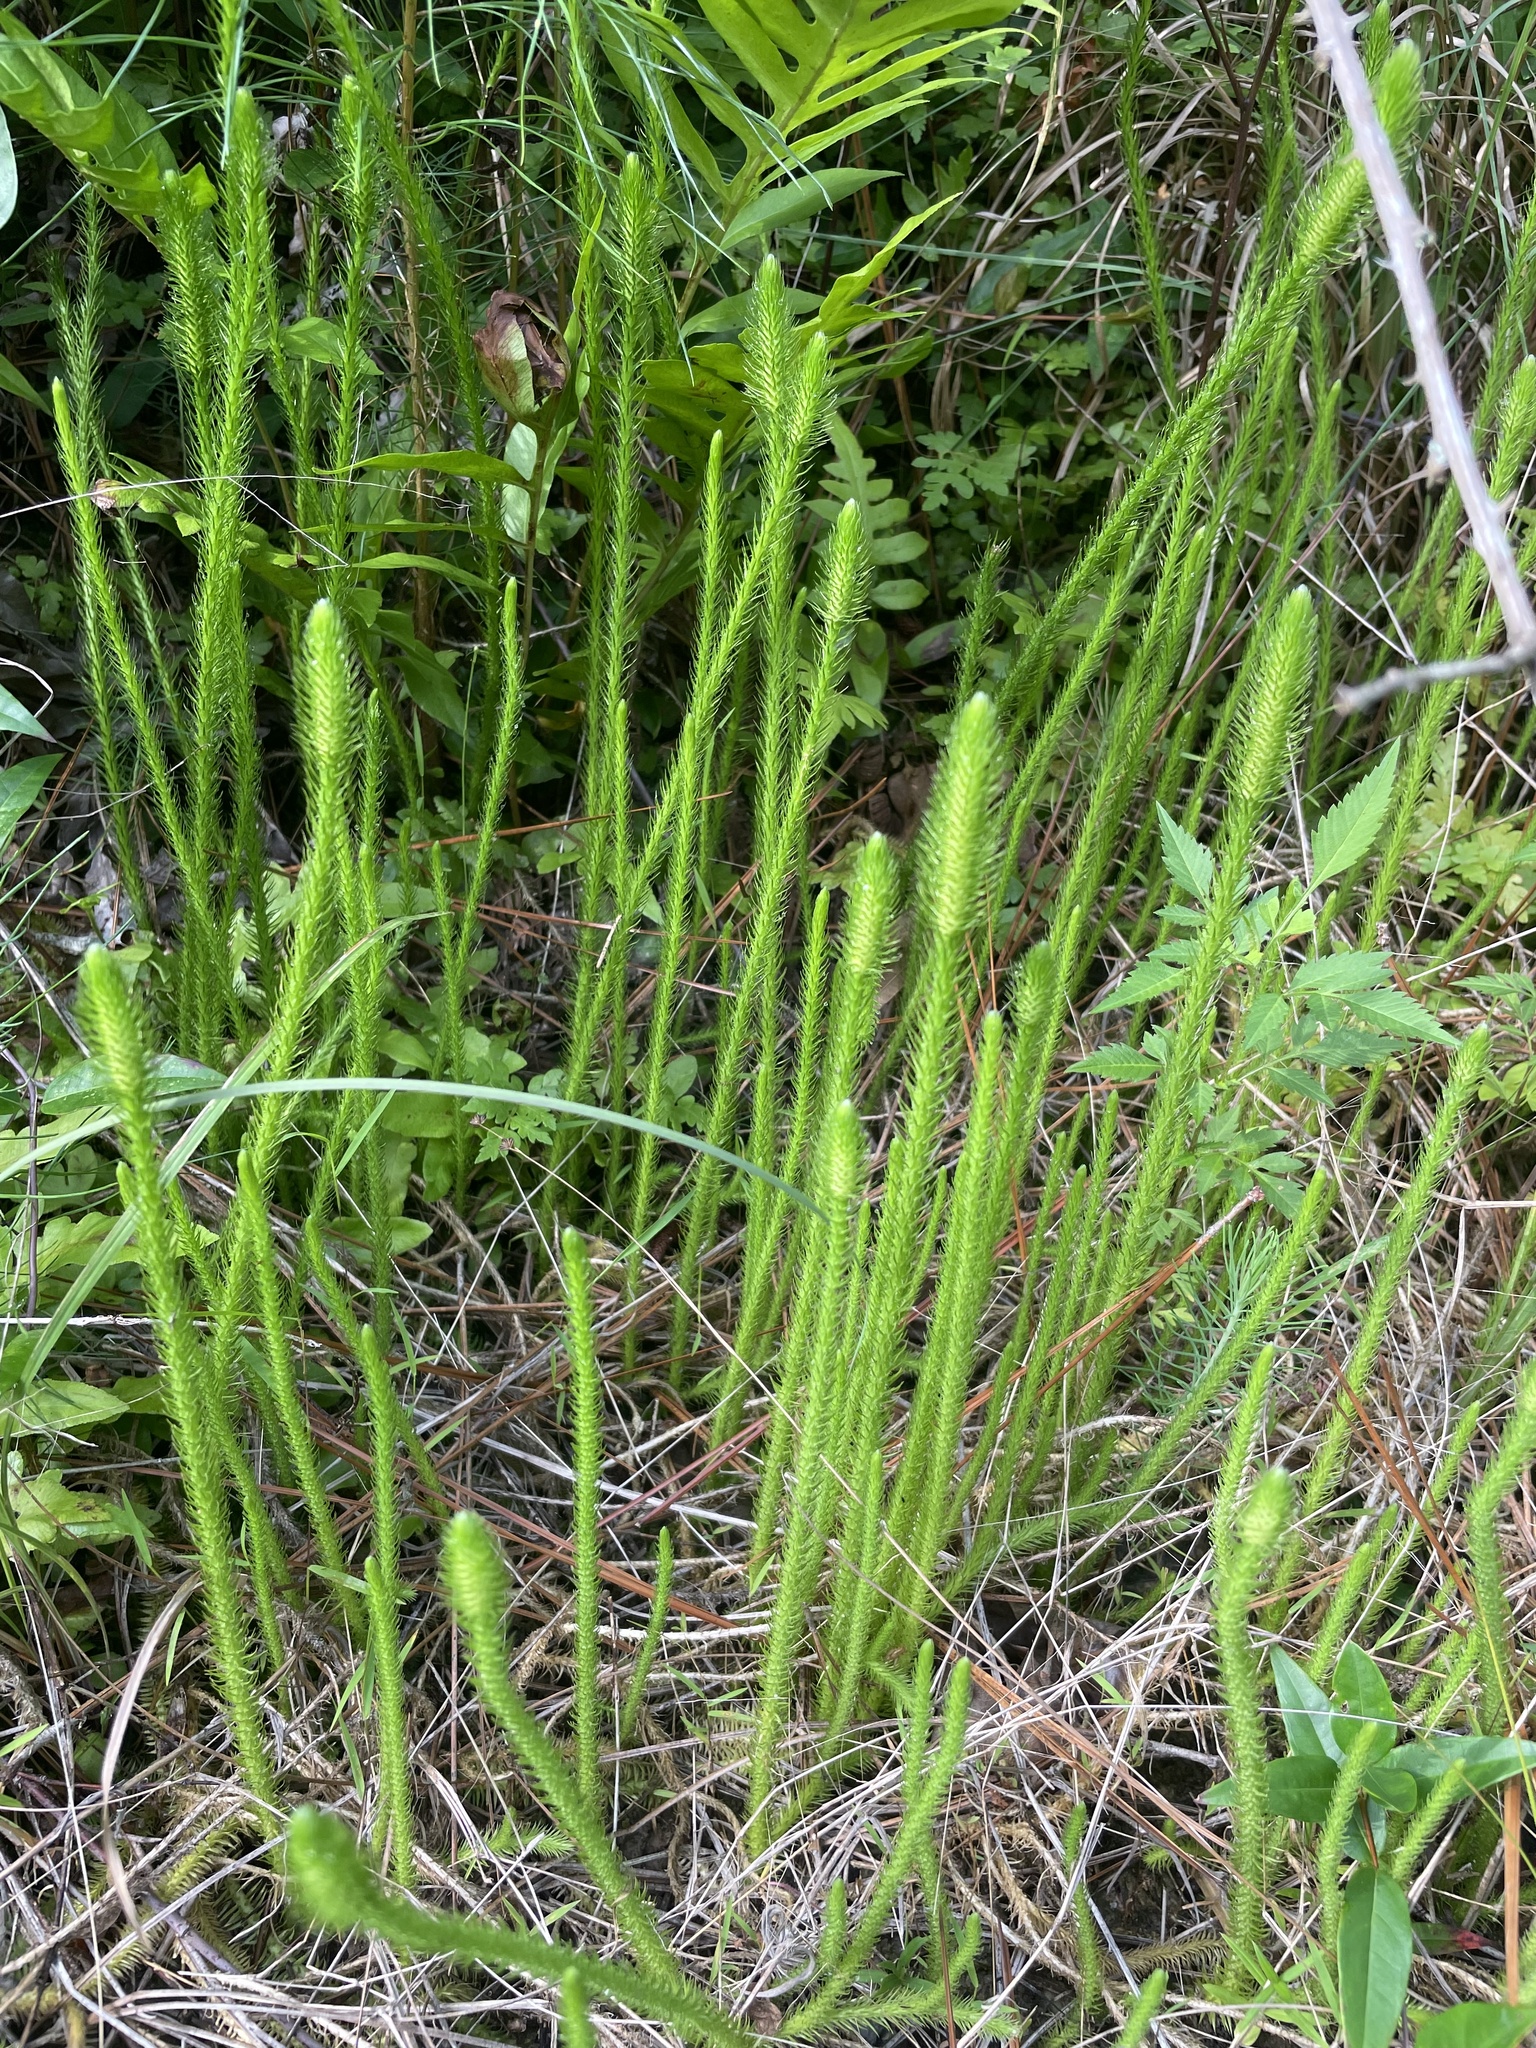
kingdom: Plantae
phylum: Tracheophyta
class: Lycopodiopsida
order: Lycopodiales
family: Lycopodiaceae
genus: Lycopodiella
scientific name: Lycopodiella alopecuroides
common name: Foxtail clubmoss
